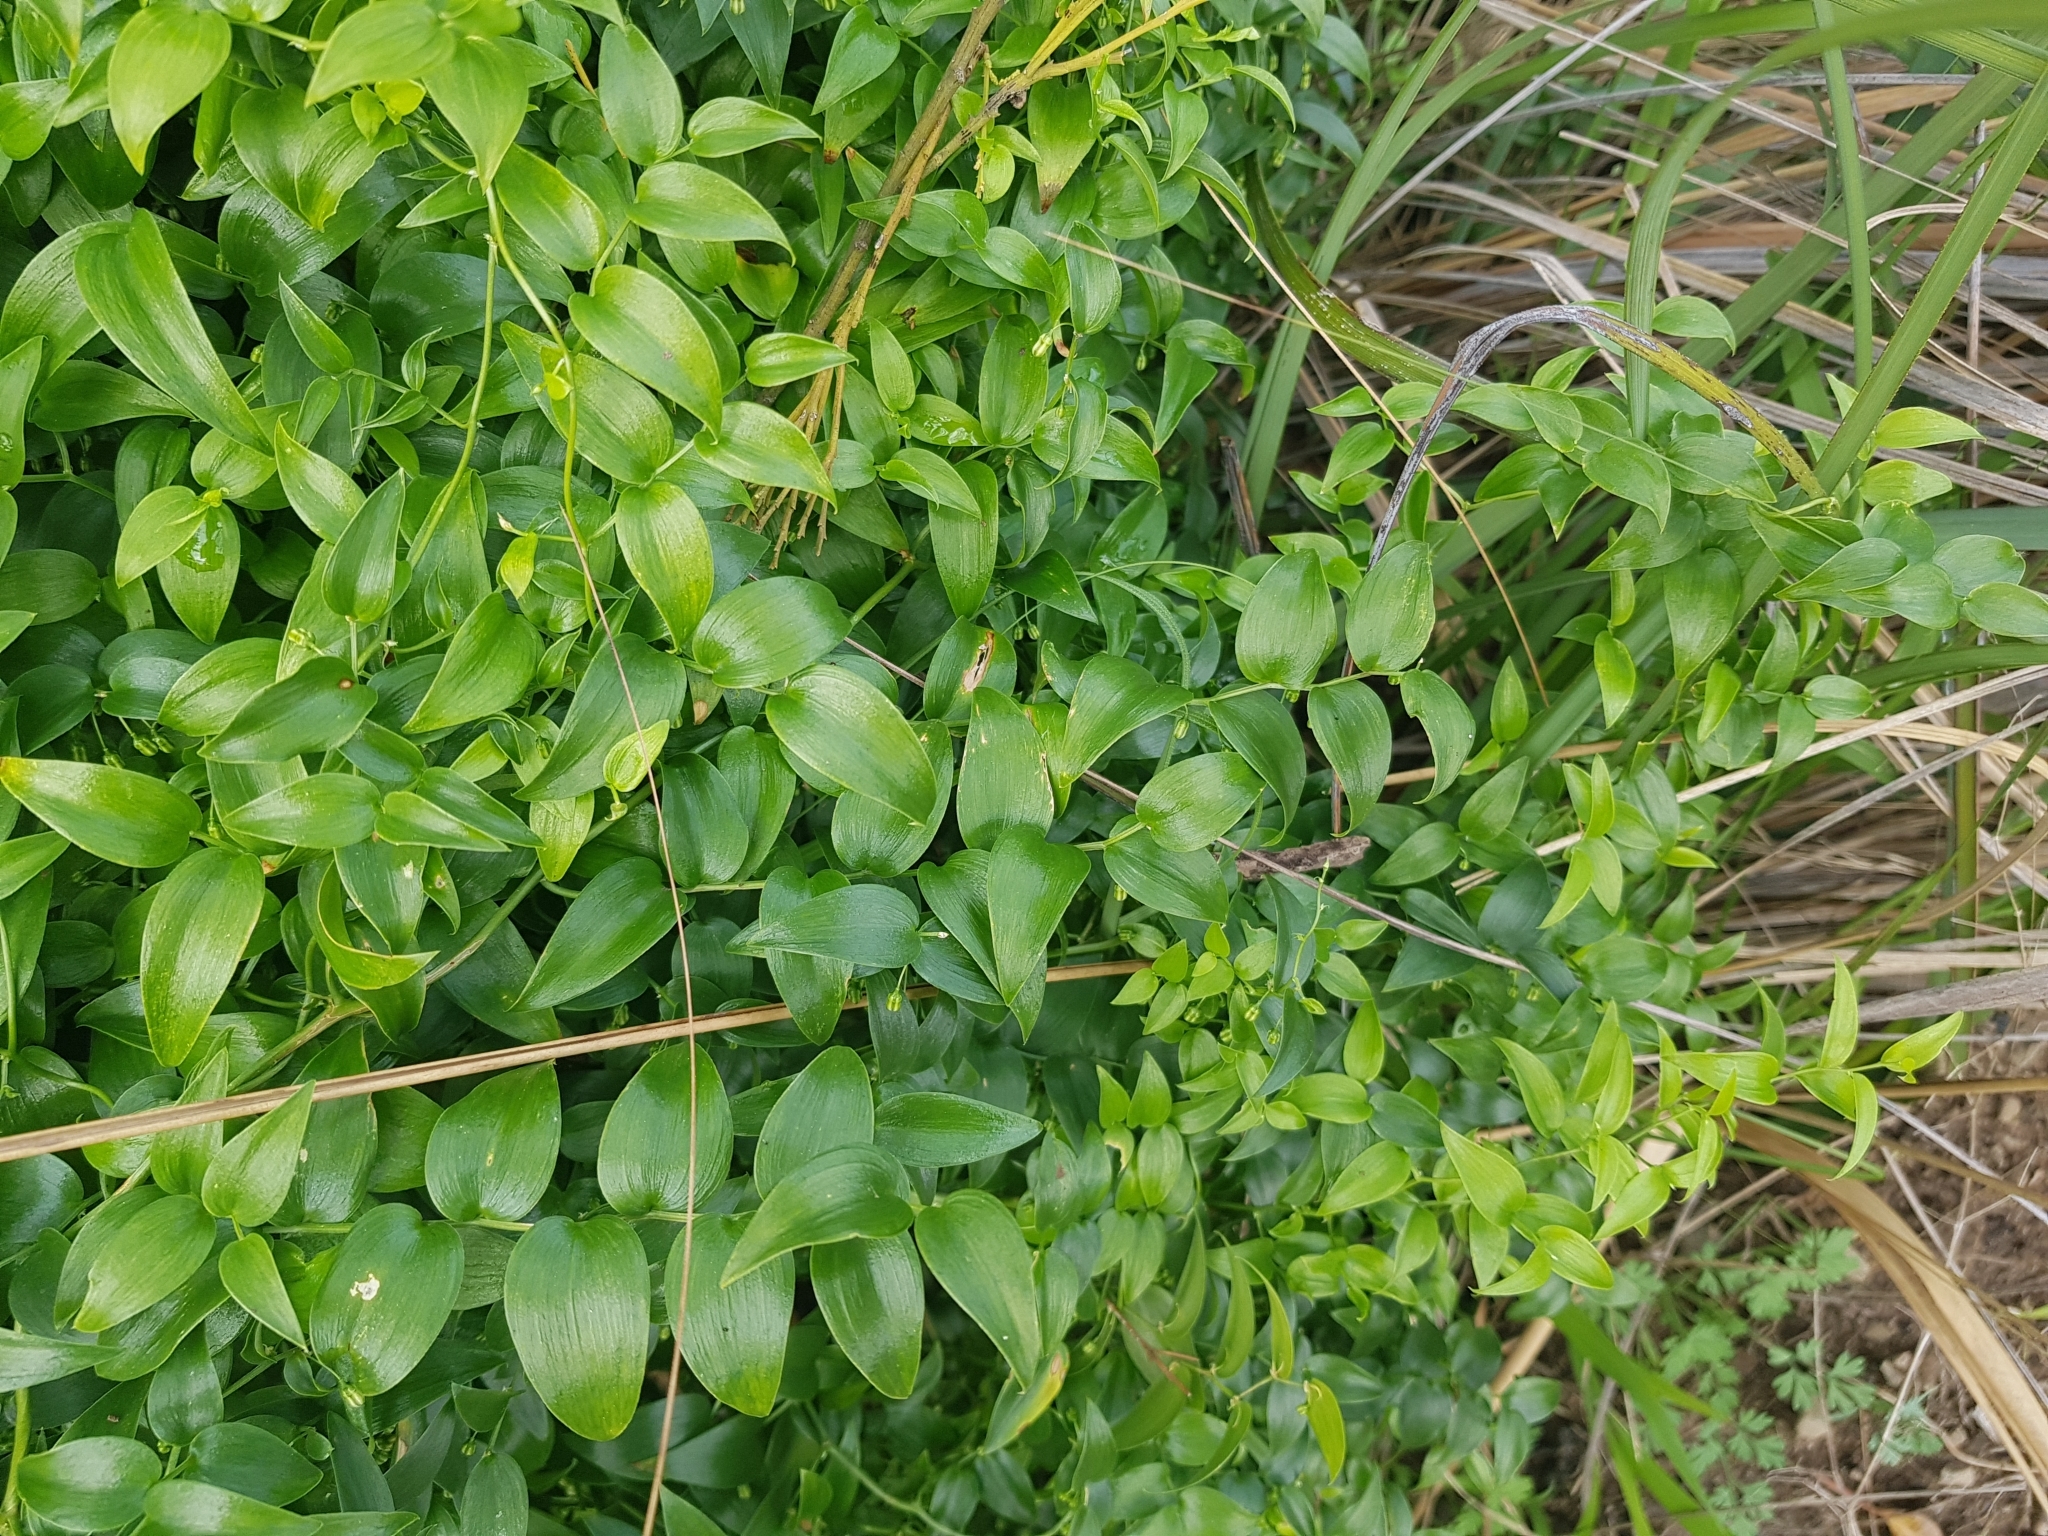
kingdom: Plantae
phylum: Tracheophyta
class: Liliopsida
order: Asparagales
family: Asparagaceae
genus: Asparagus
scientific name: Asparagus asparagoides
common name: African asparagus fern
